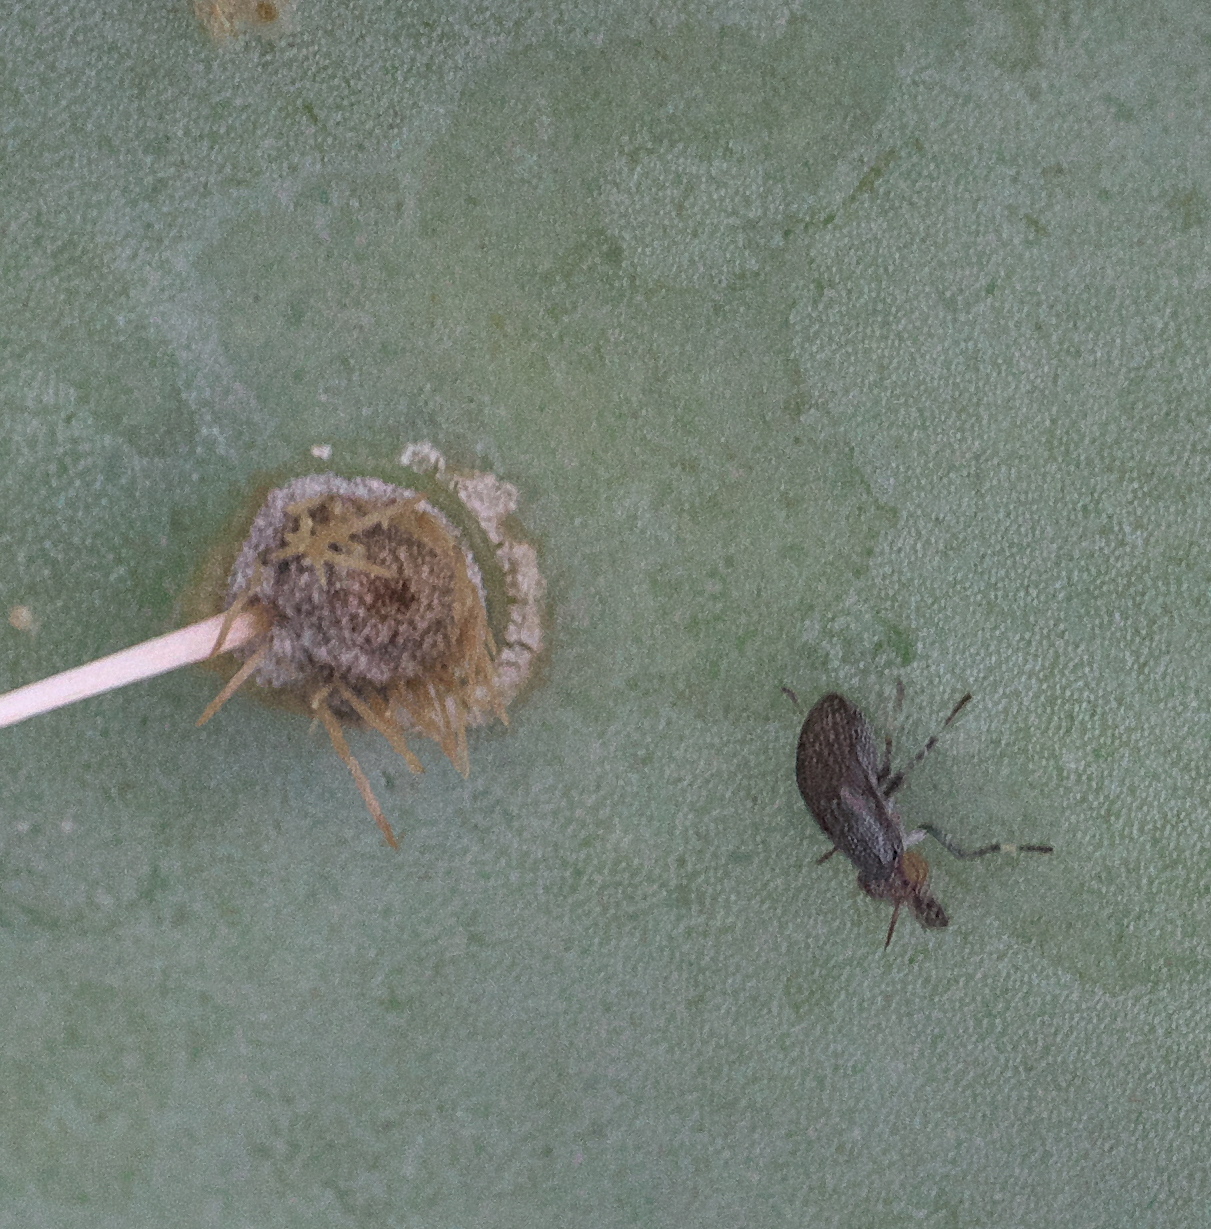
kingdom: Animalia
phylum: Arthropoda
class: Insecta
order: Diptera
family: Ulidiidae
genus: Stictomyia
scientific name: Stictomyia longicornis
